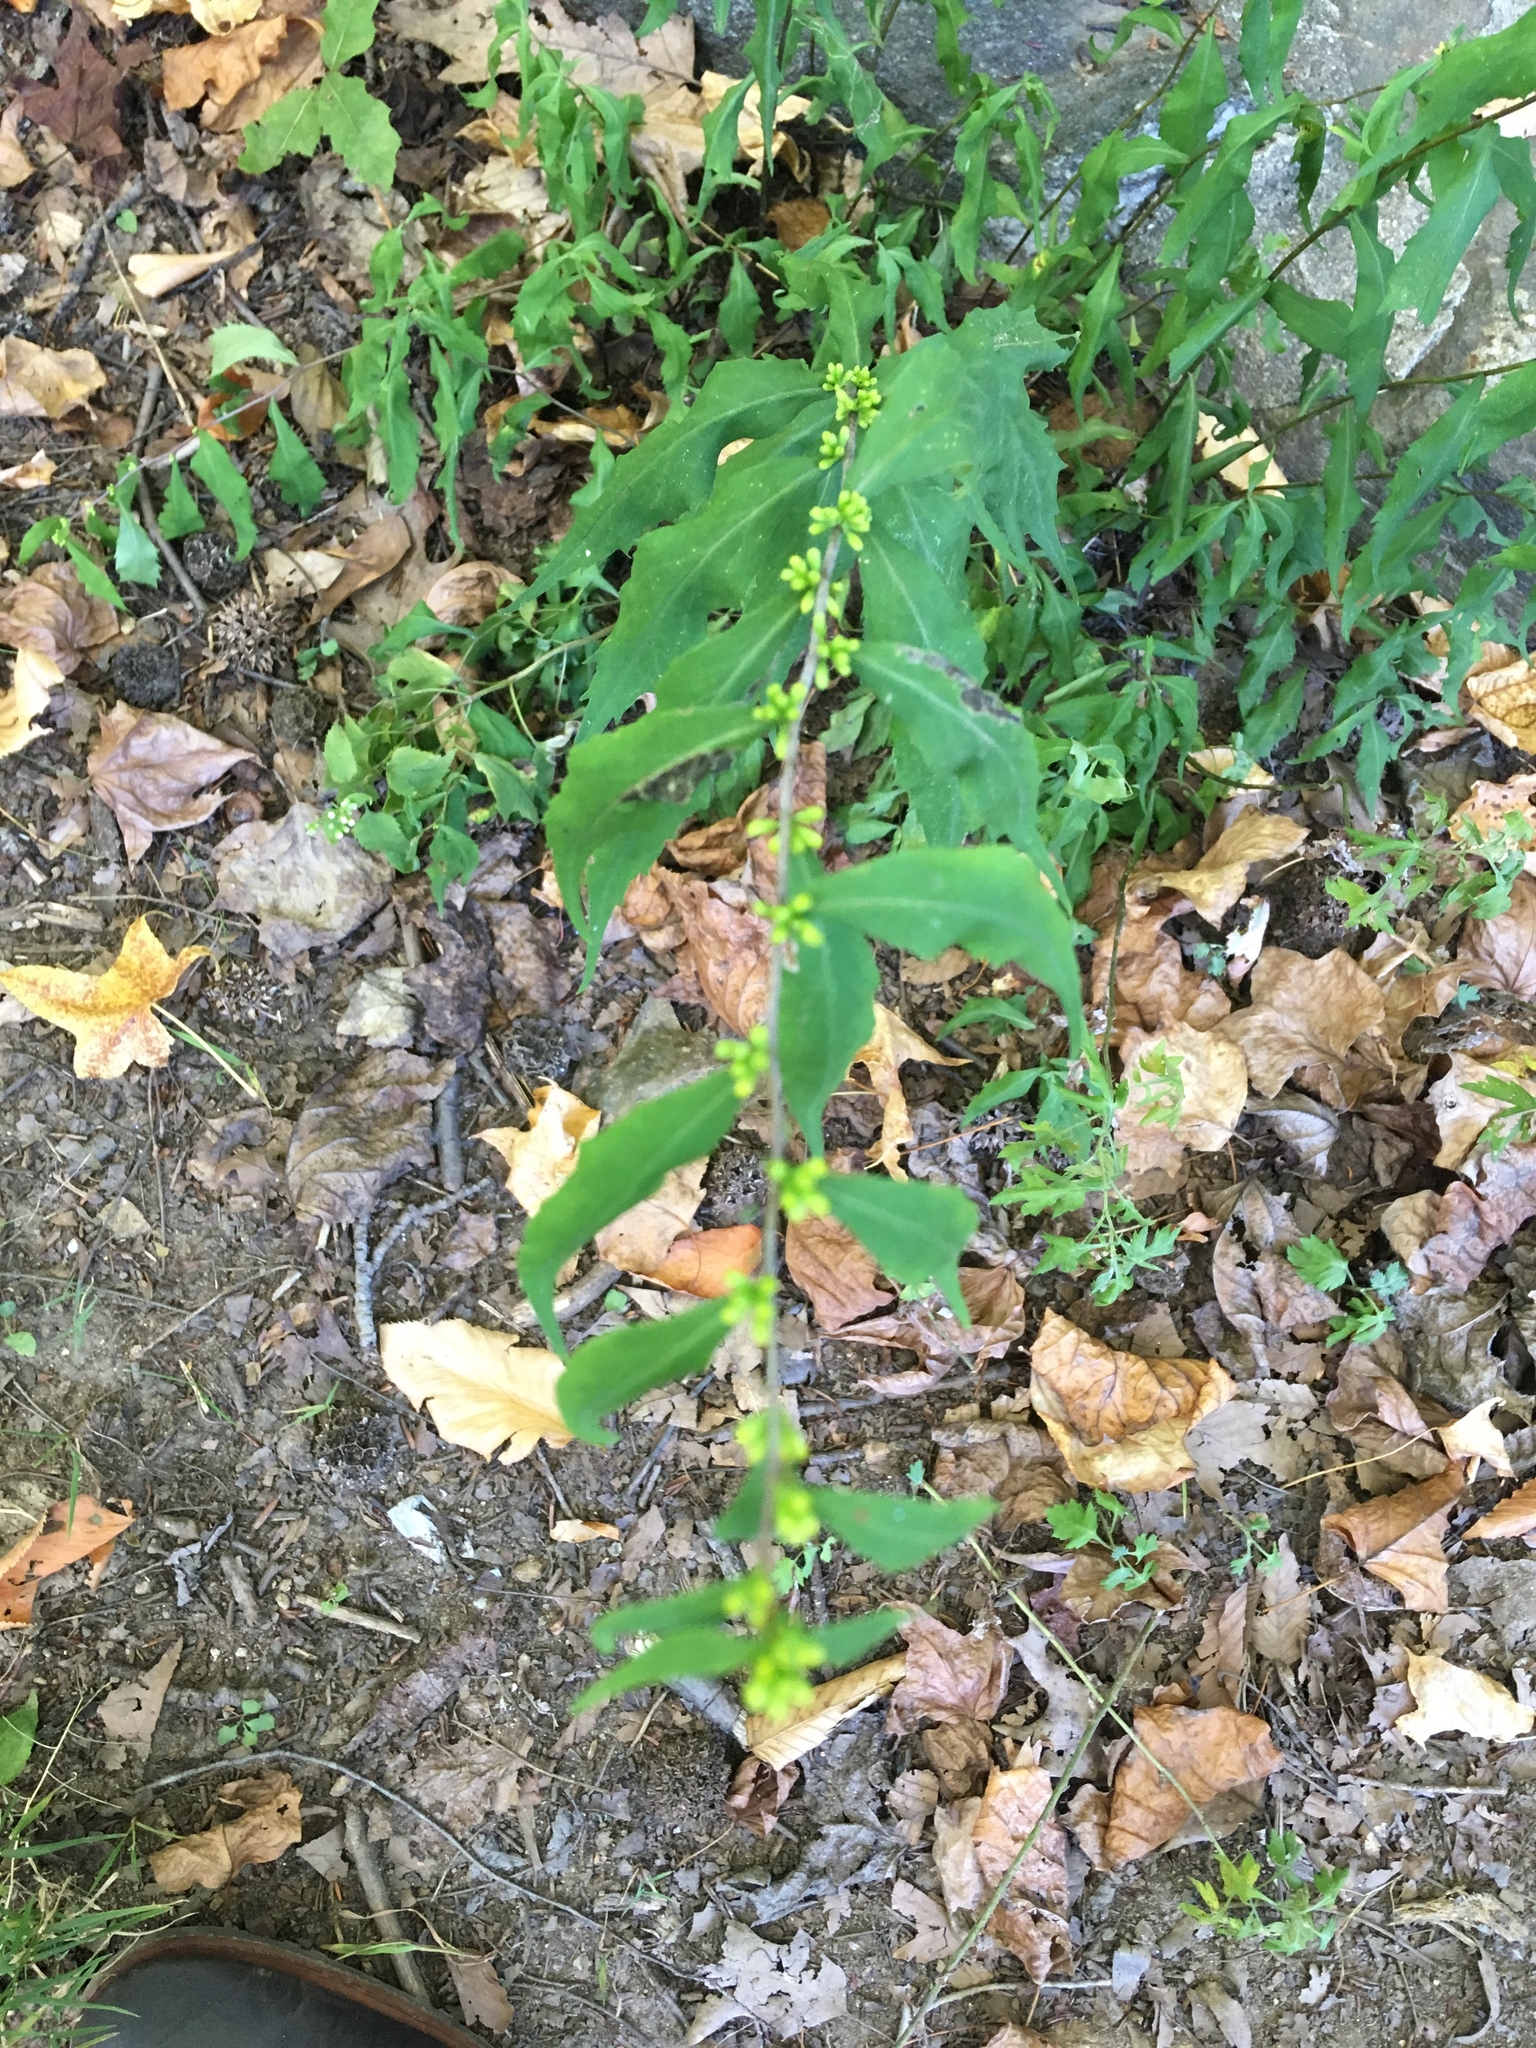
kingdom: Plantae
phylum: Tracheophyta
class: Magnoliopsida
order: Asterales
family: Asteraceae
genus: Solidago
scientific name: Solidago caesia
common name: Woodland goldenrod
